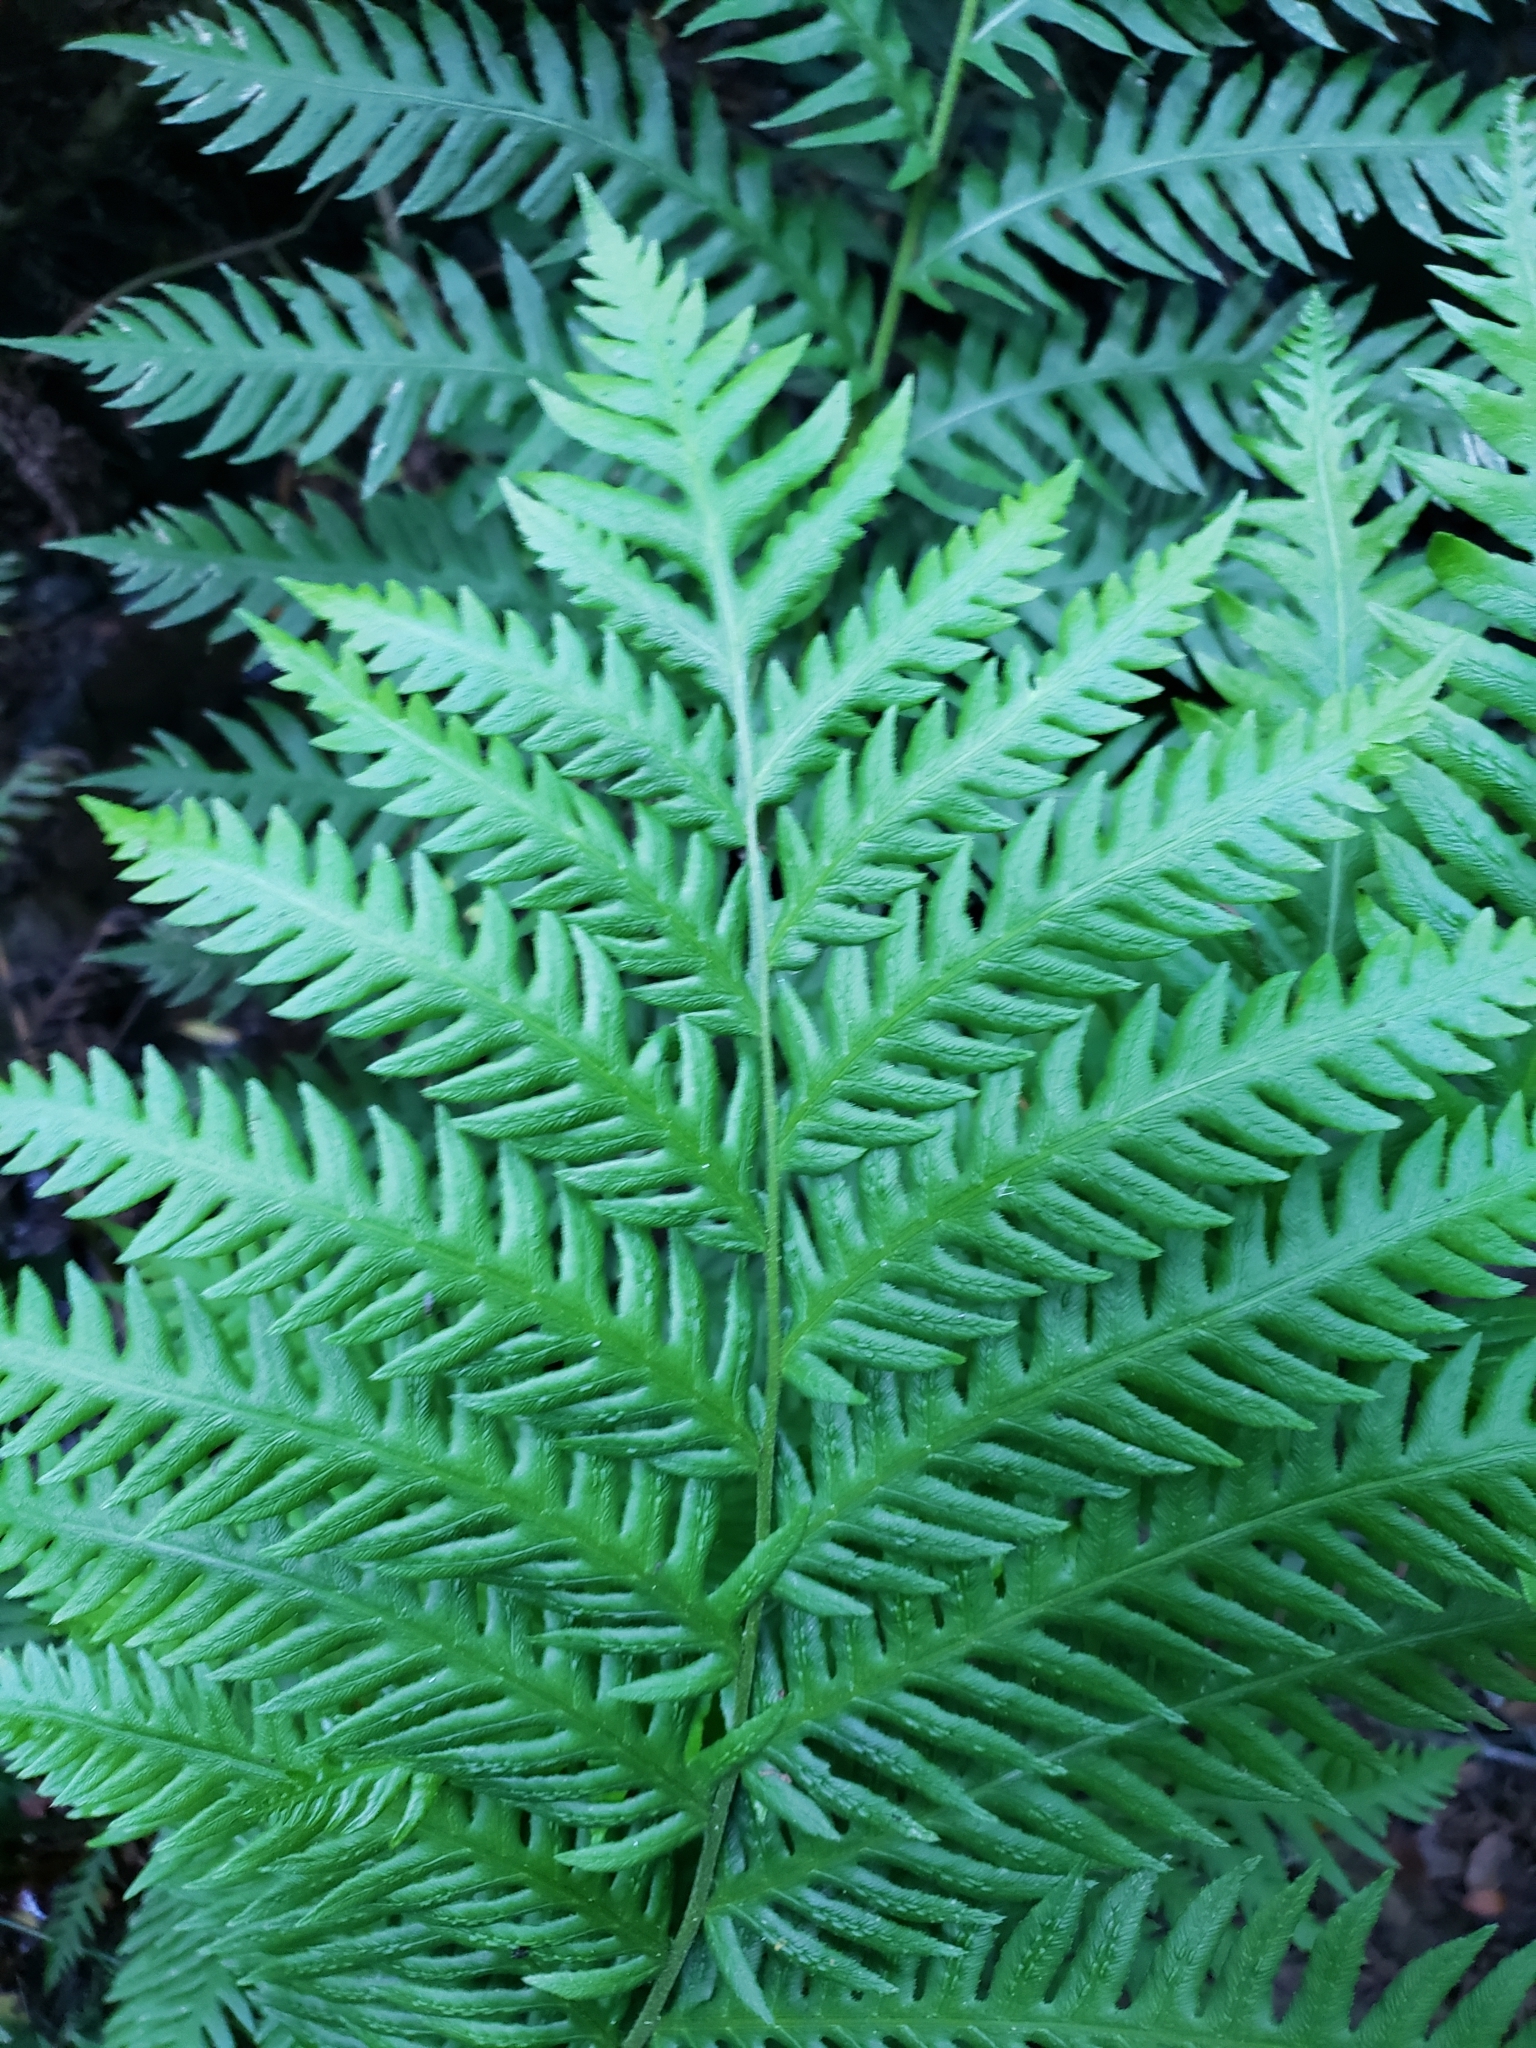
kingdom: Plantae
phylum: Tracheophyta
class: Polypodiopsida
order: Polypodiales
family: Blechnaceae
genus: Woodwardia
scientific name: Woodwardia fimbriata
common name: Giant chain fern
